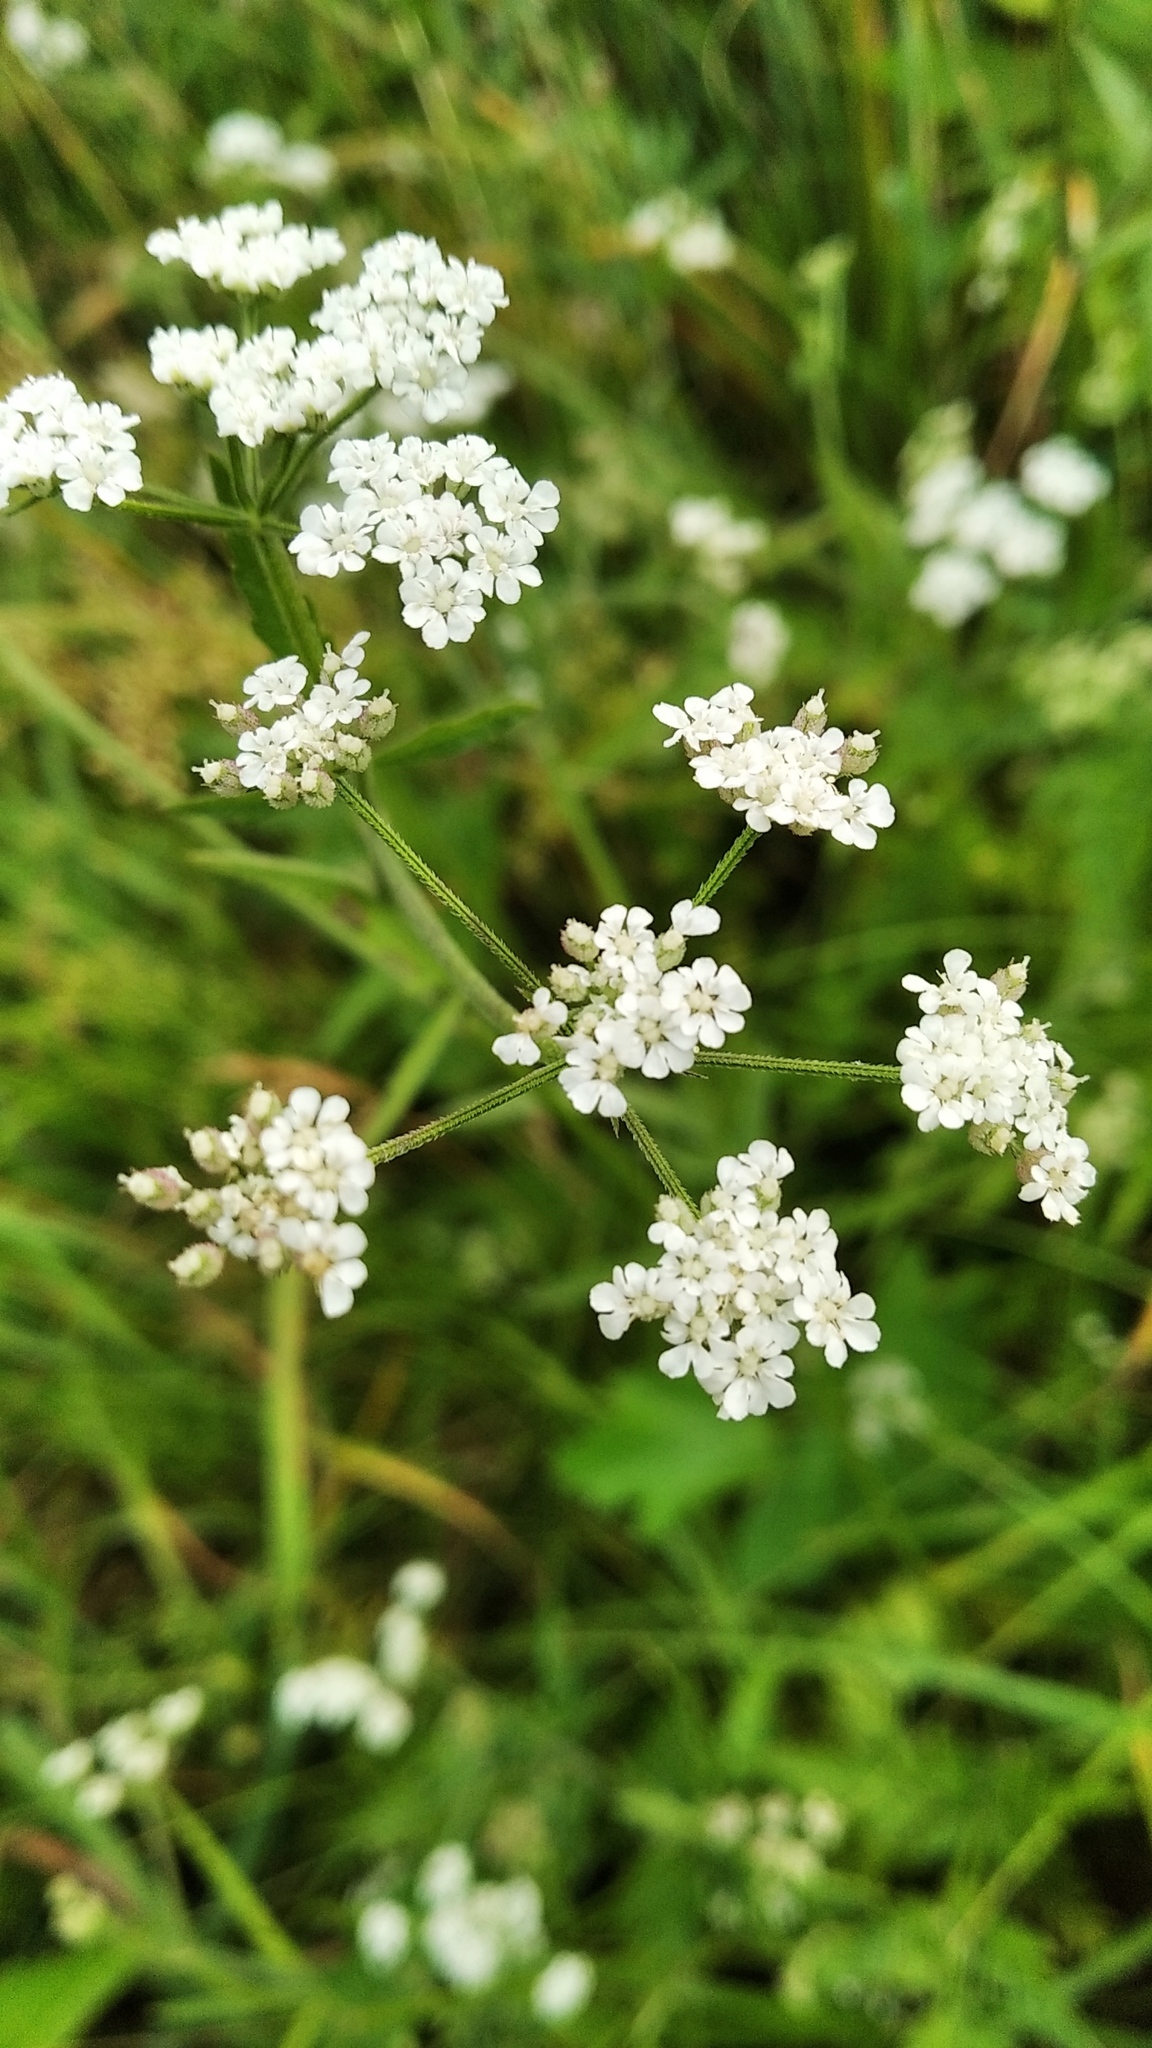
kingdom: Plantae
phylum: Tracheophyta
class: Magnoliopsida
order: Apiales
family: Apiaceae
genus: Torilis
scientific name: Torilis japonica
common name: Upright hedge-parsley
